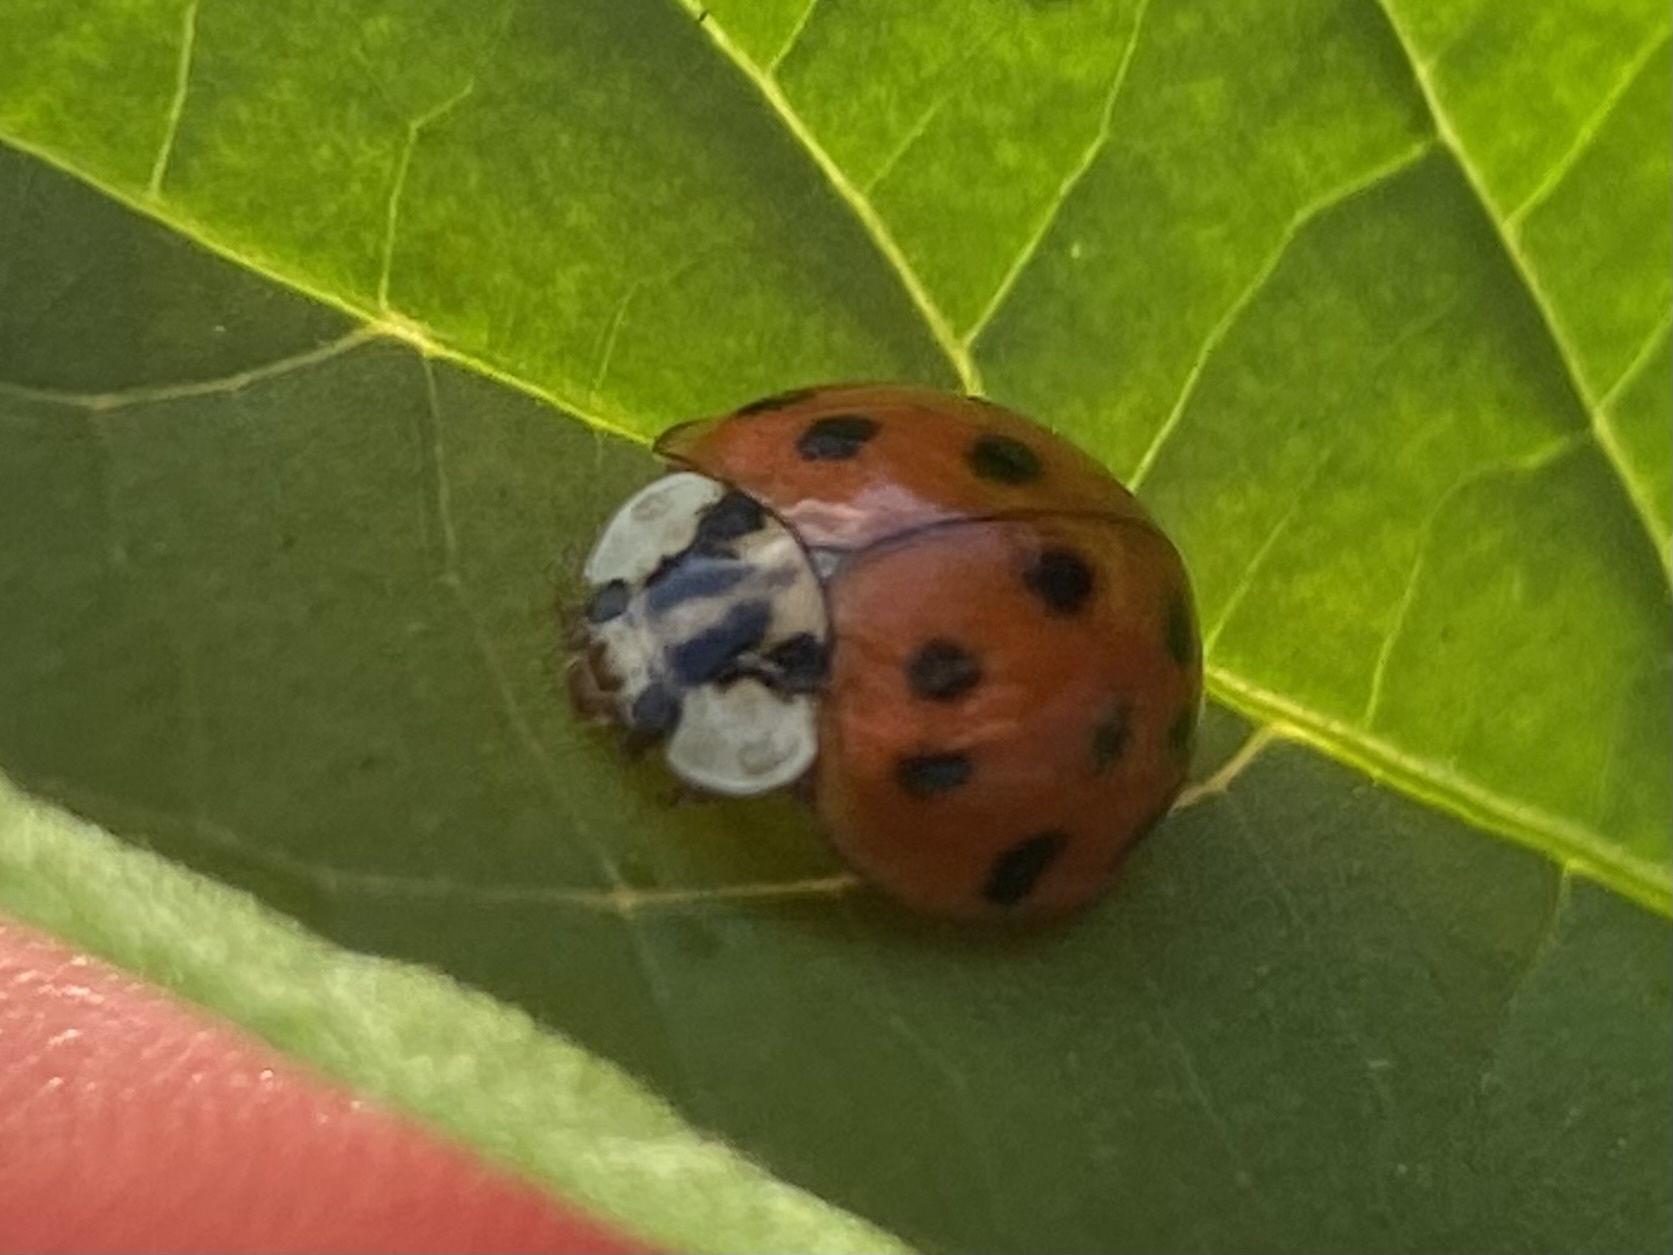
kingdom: Animalia
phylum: Arthropoda
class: Insecta
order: Coleoptera
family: Coccinellidae
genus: Harmonia
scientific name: Harmonia axyridis
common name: Harlequin ladybird
